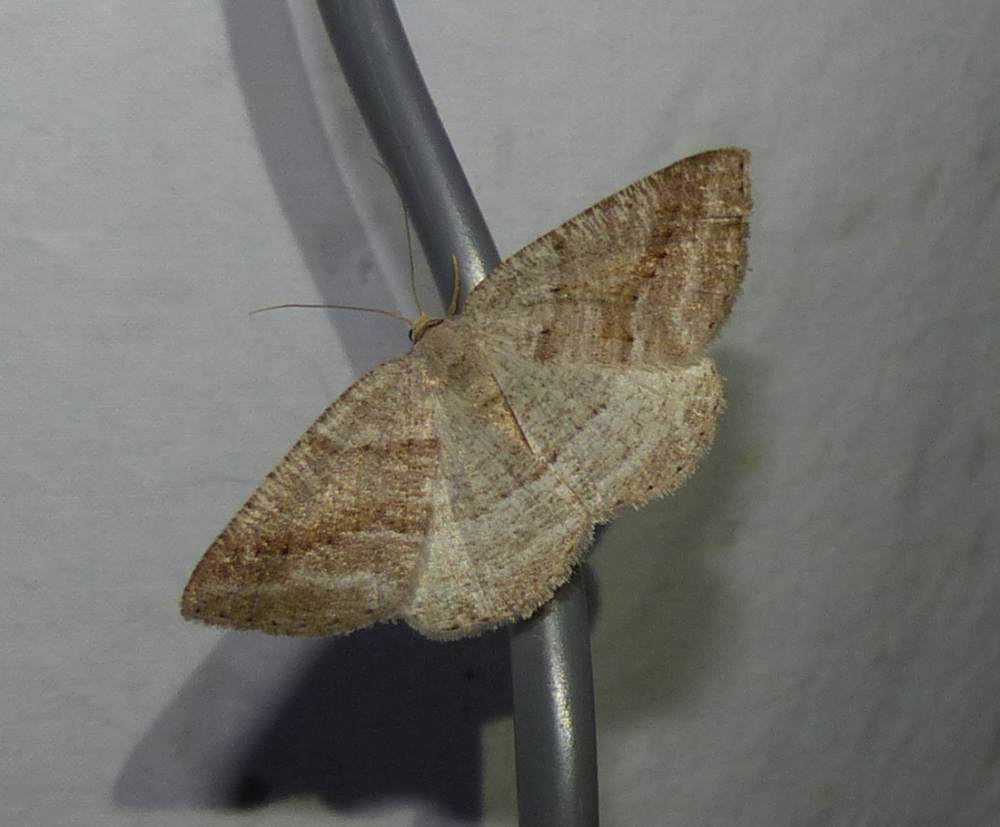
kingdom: Animalia
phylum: Arthropoda
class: Insecta
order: Lepidoptera
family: Geometridae
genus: Tacparia
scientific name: Tacparia detersata
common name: Pale alder moth
